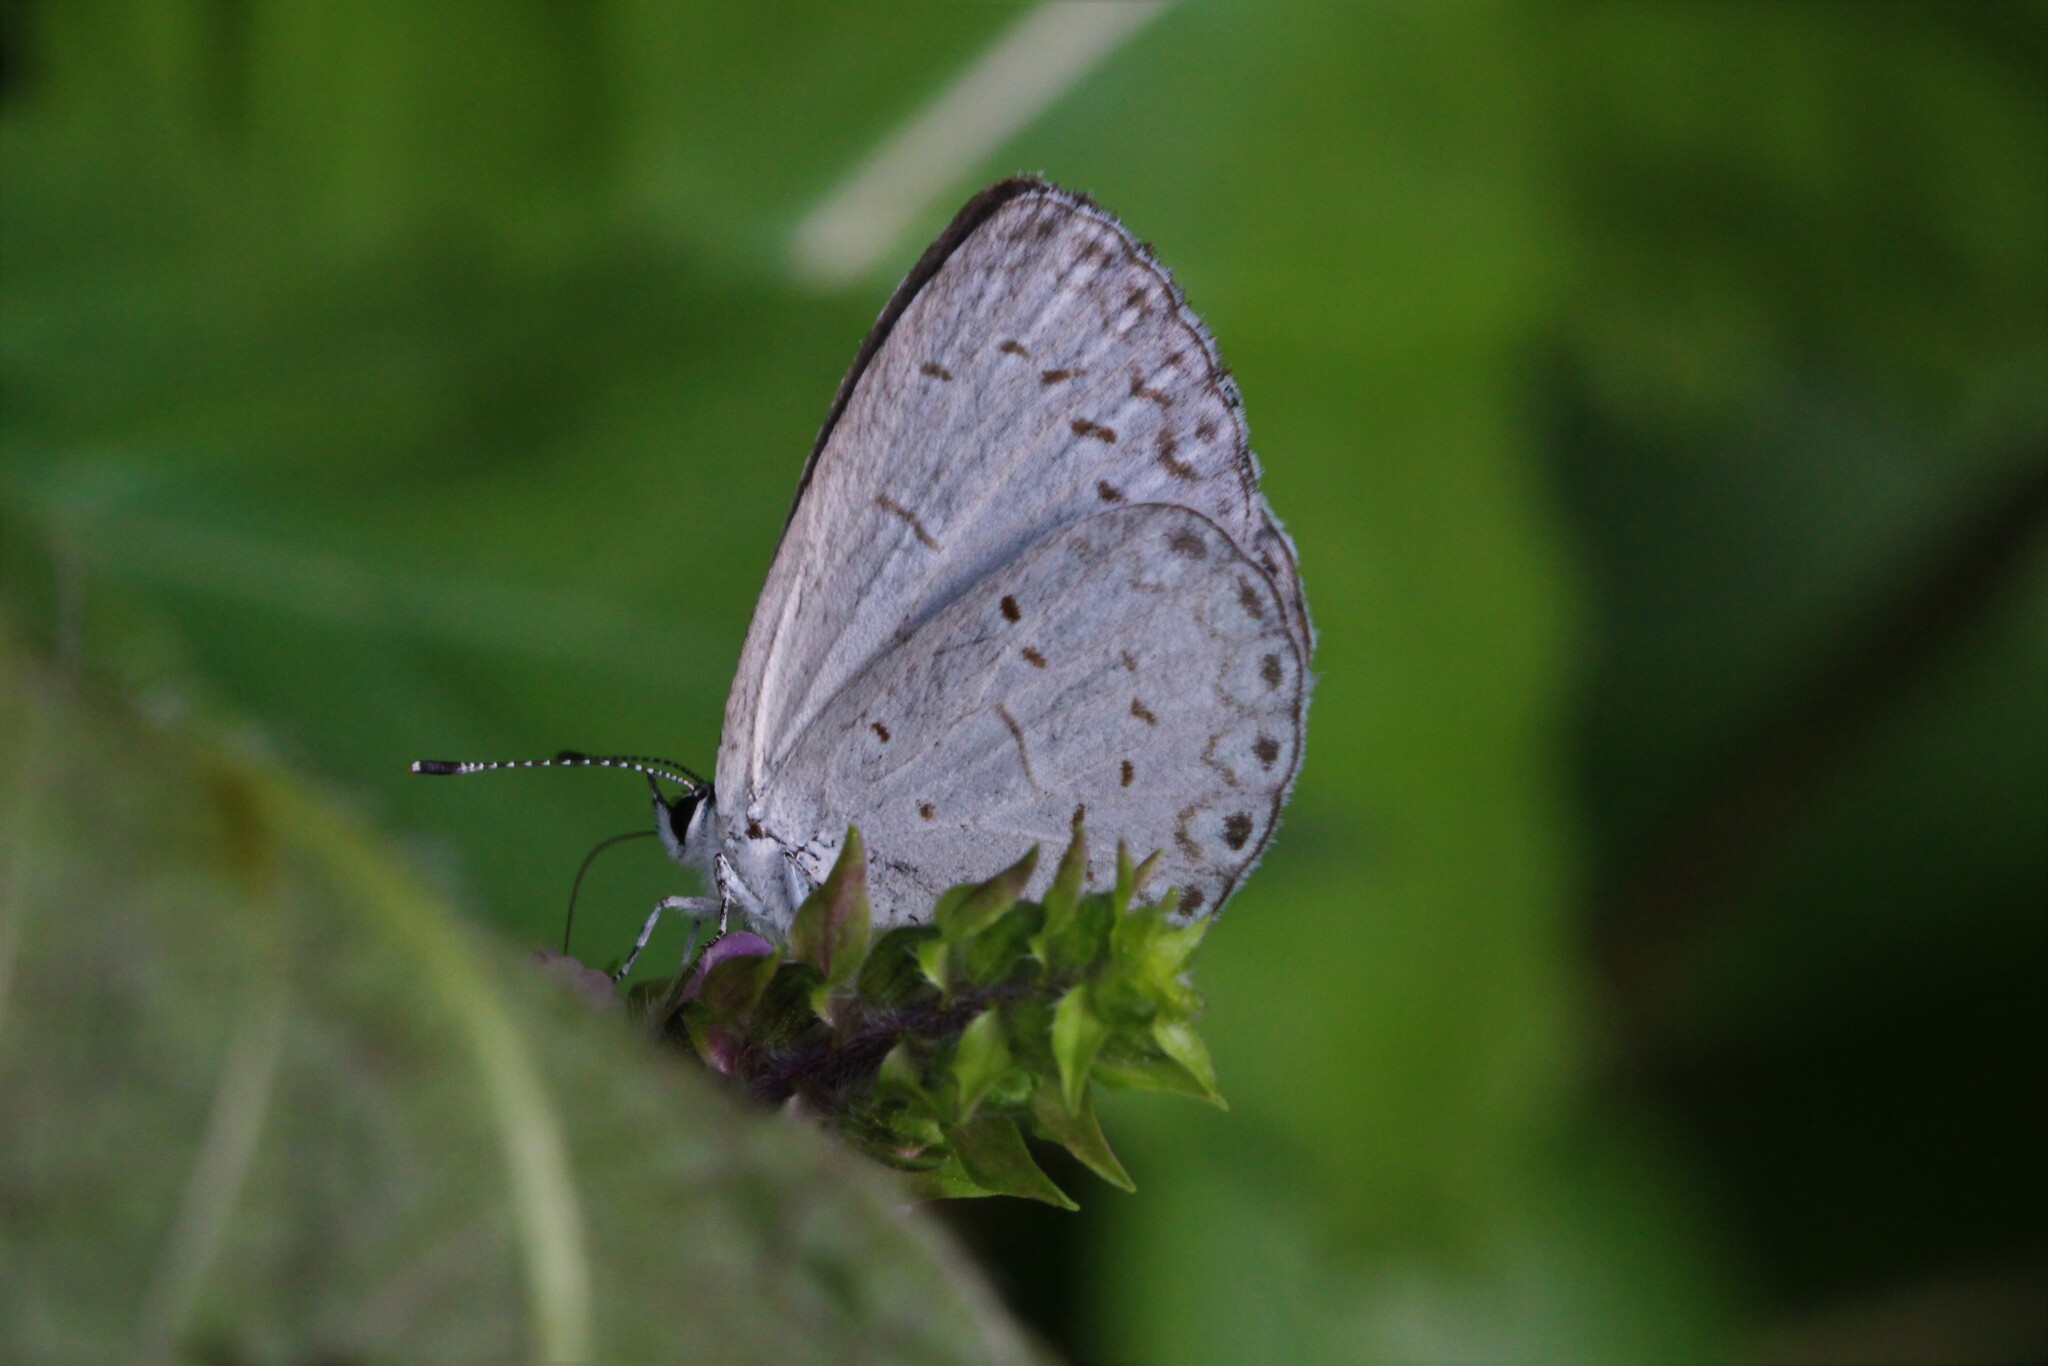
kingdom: Animalia
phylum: Arthropoda
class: Insecta
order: Lepidoptera
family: Lycaenidae
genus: Cyaniris
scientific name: Cyaniris neglecta
